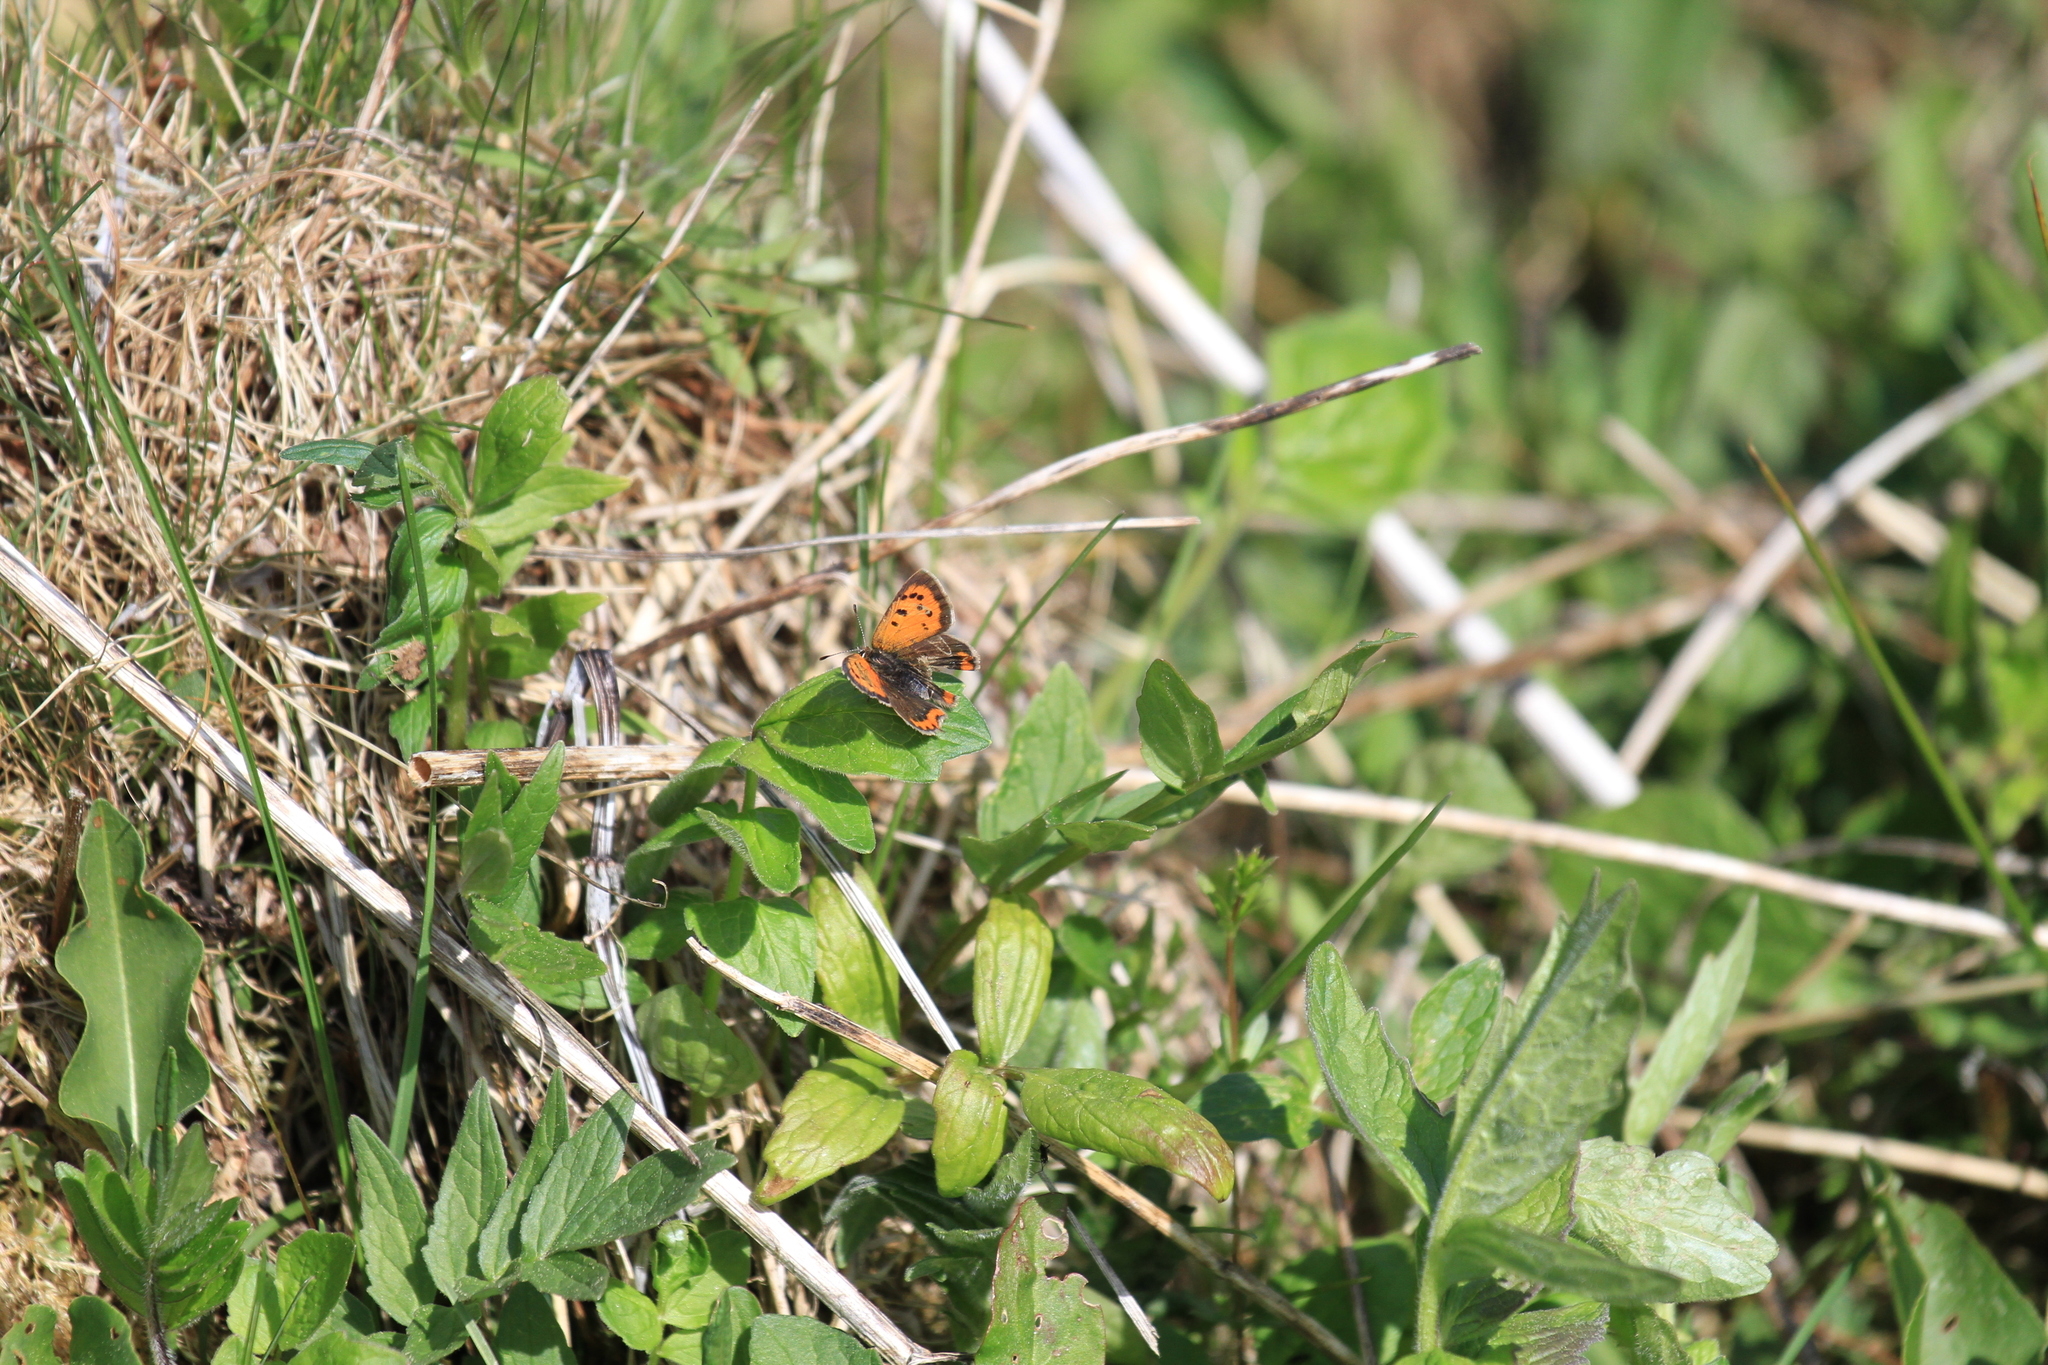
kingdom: Animalia
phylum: Arthropoda
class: Insecta
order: Lepidoptera
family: Lycaenidae
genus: Lycaena
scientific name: Lycaena phlaeas
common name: Small copper
